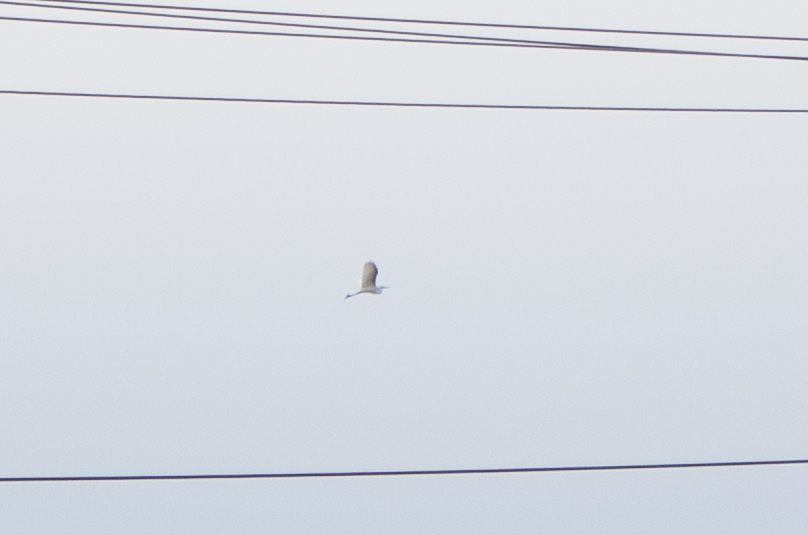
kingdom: Animalia
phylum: Chordata
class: Aves
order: Pelecaniformes
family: Ardeidae
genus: Ardea
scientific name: Ardea alba
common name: Great egret
